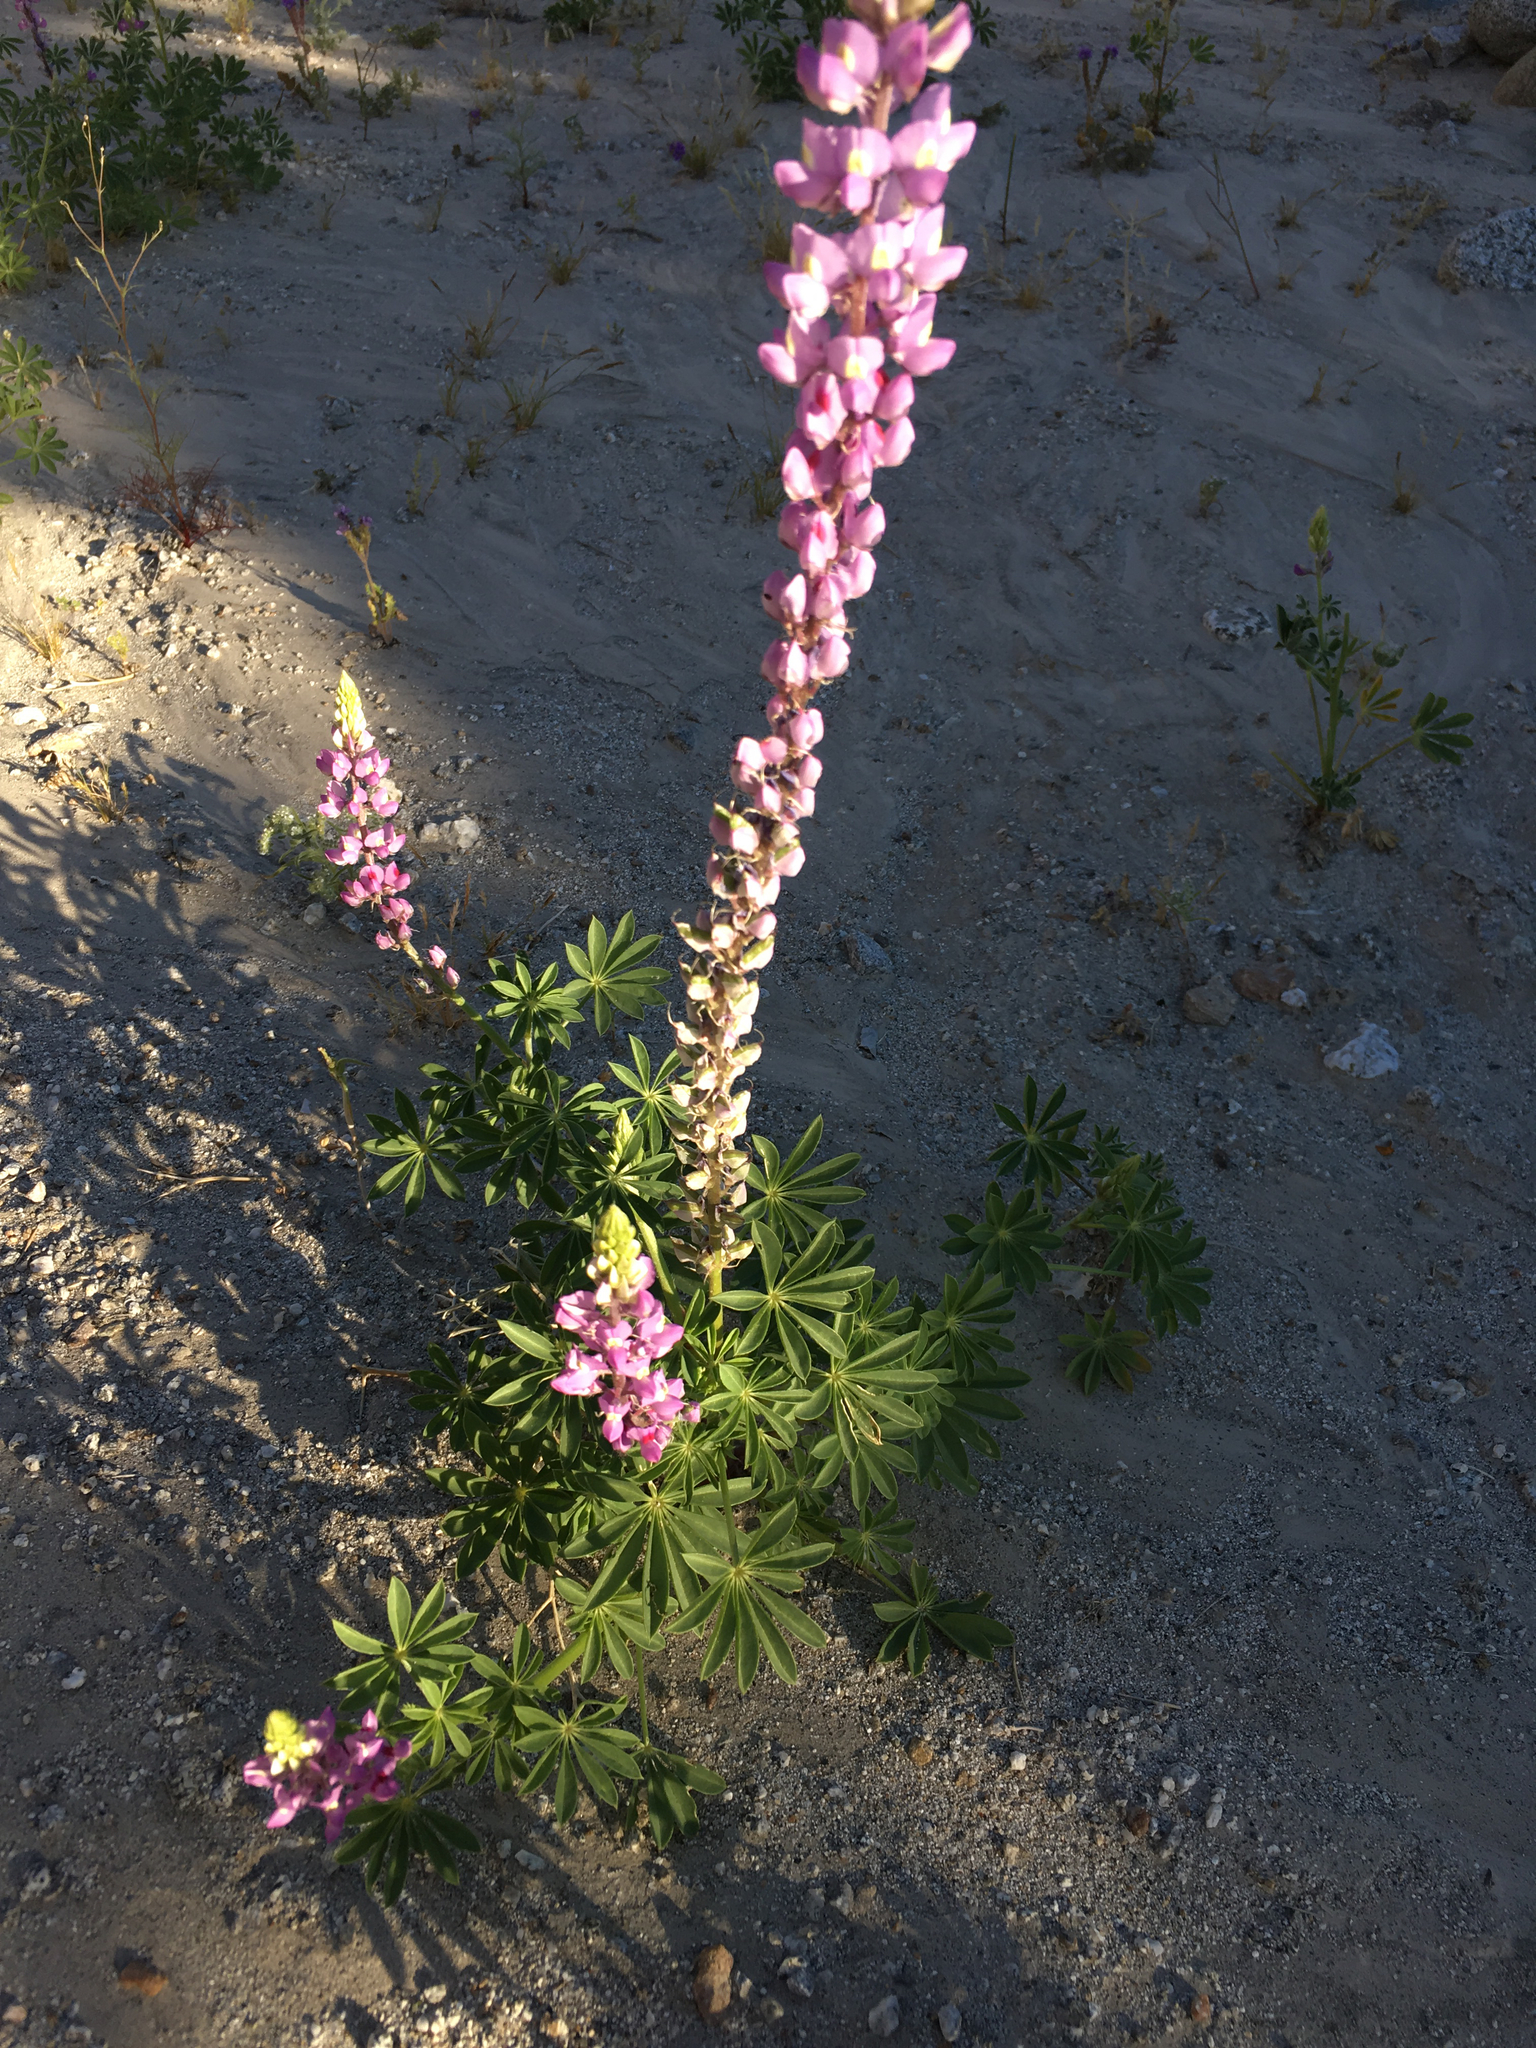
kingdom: Plantae
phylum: Tracheophyta
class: Magnoliopsida
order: Fabales
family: Fabaceae
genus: Lupinus
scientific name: Lupinus arizonicus
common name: Arizona lupine
